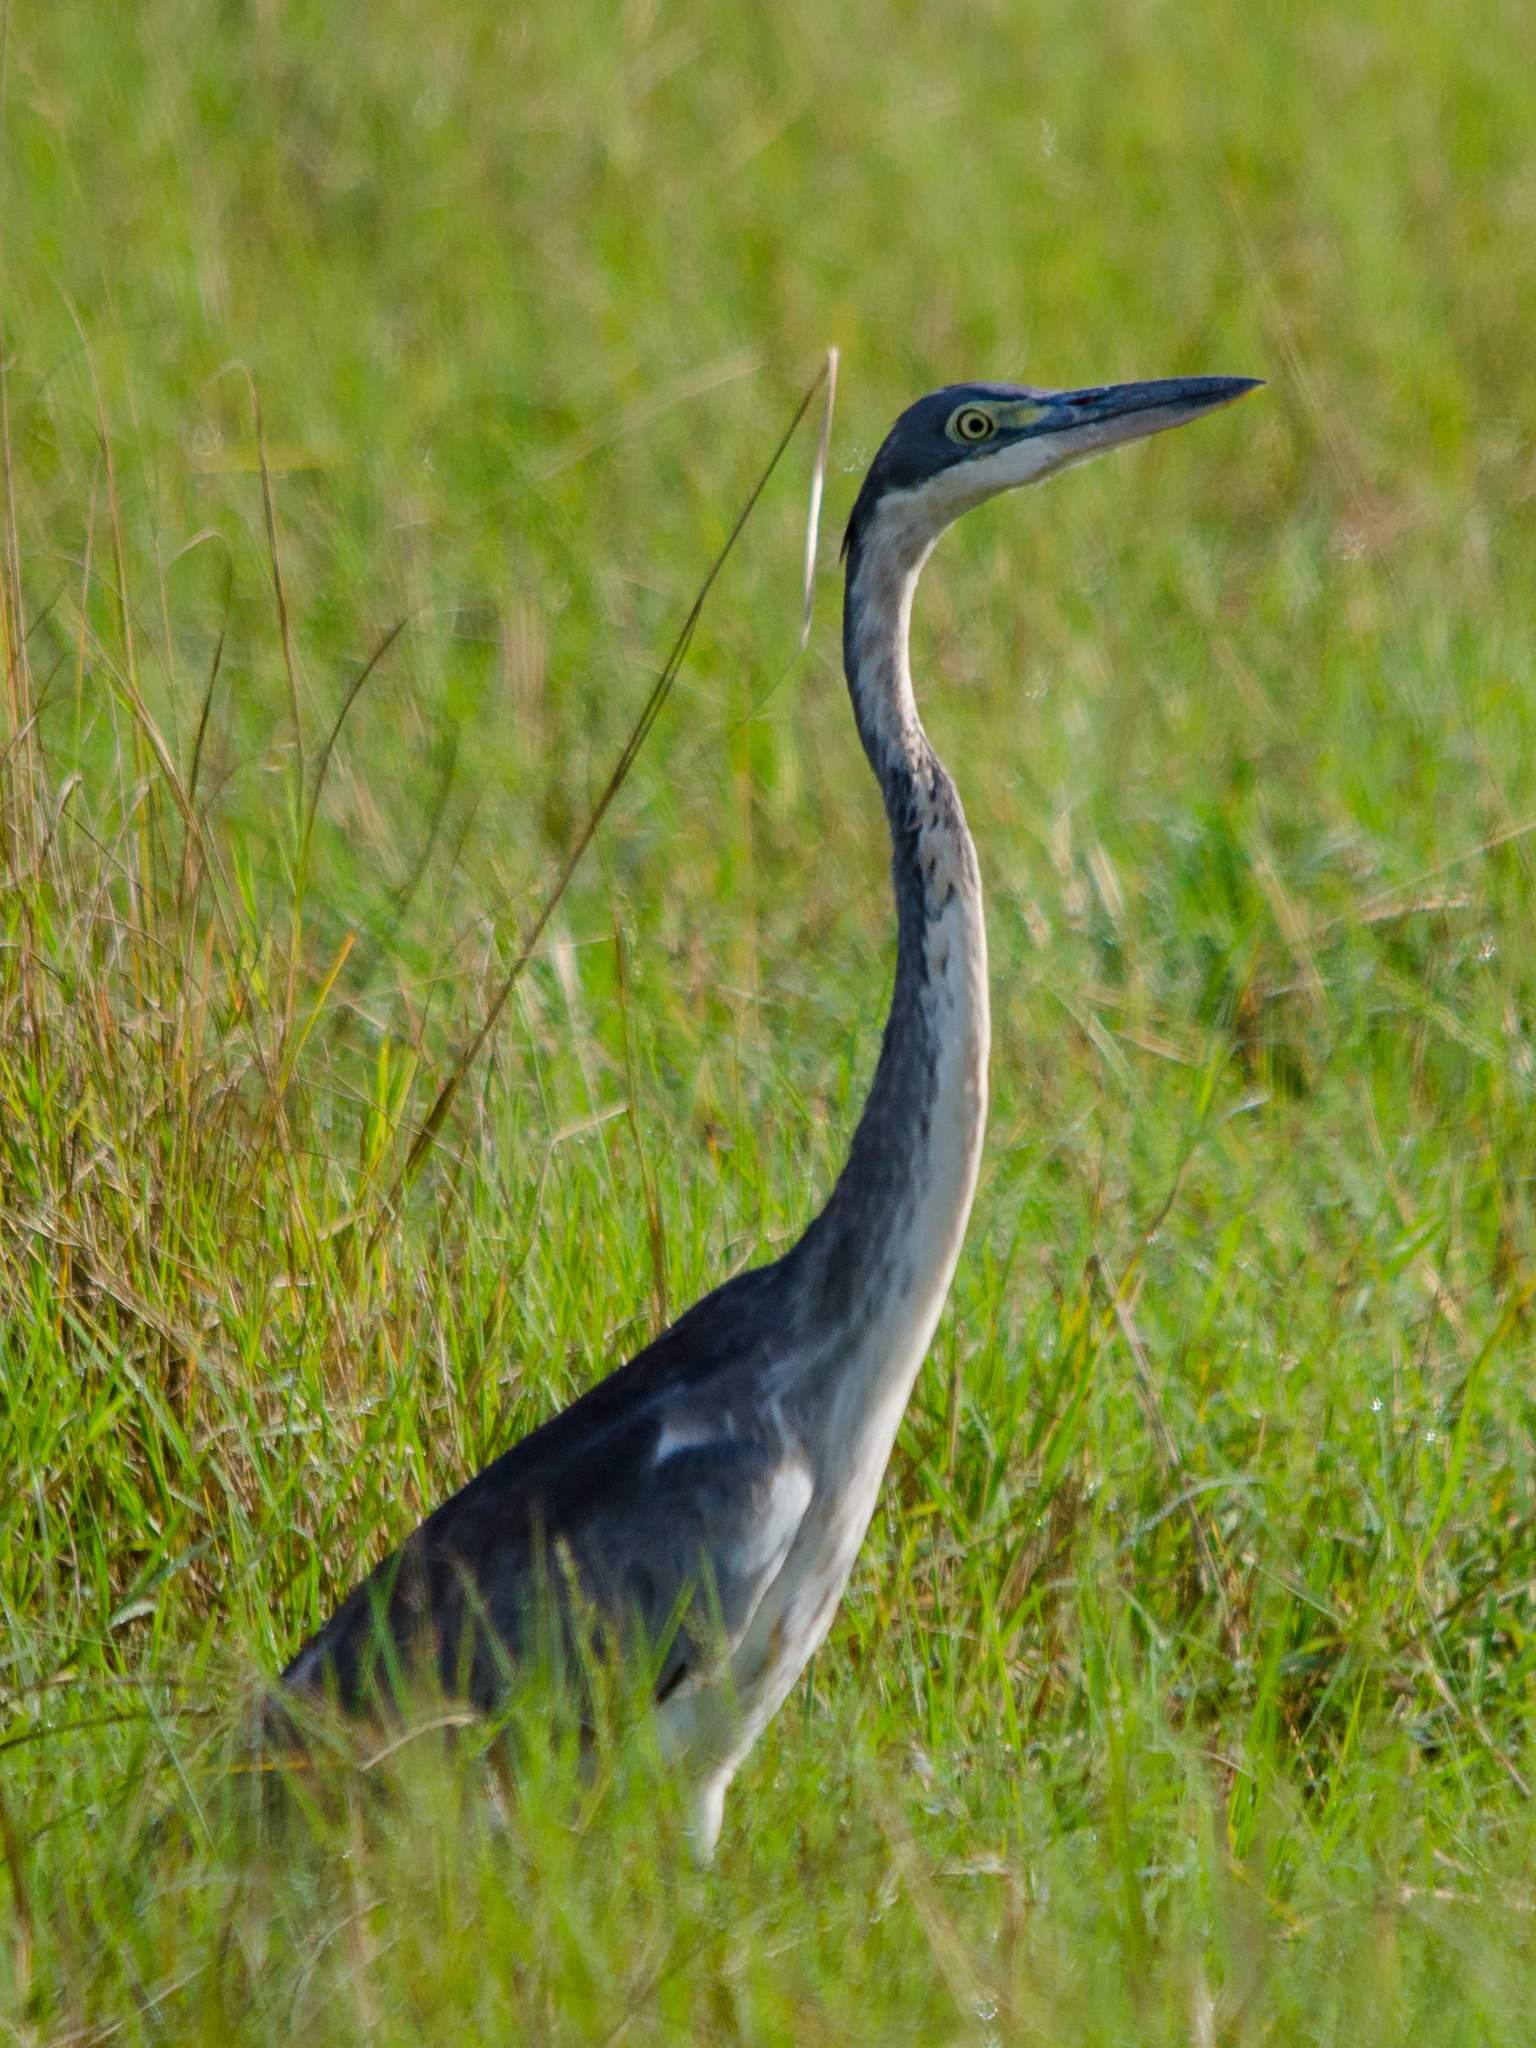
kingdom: Animalia
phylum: Chordata
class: Aves
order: Pelecaniformes
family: Ardeidae
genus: Ardea
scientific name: Ardea melanocephala
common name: Black-headed heron
